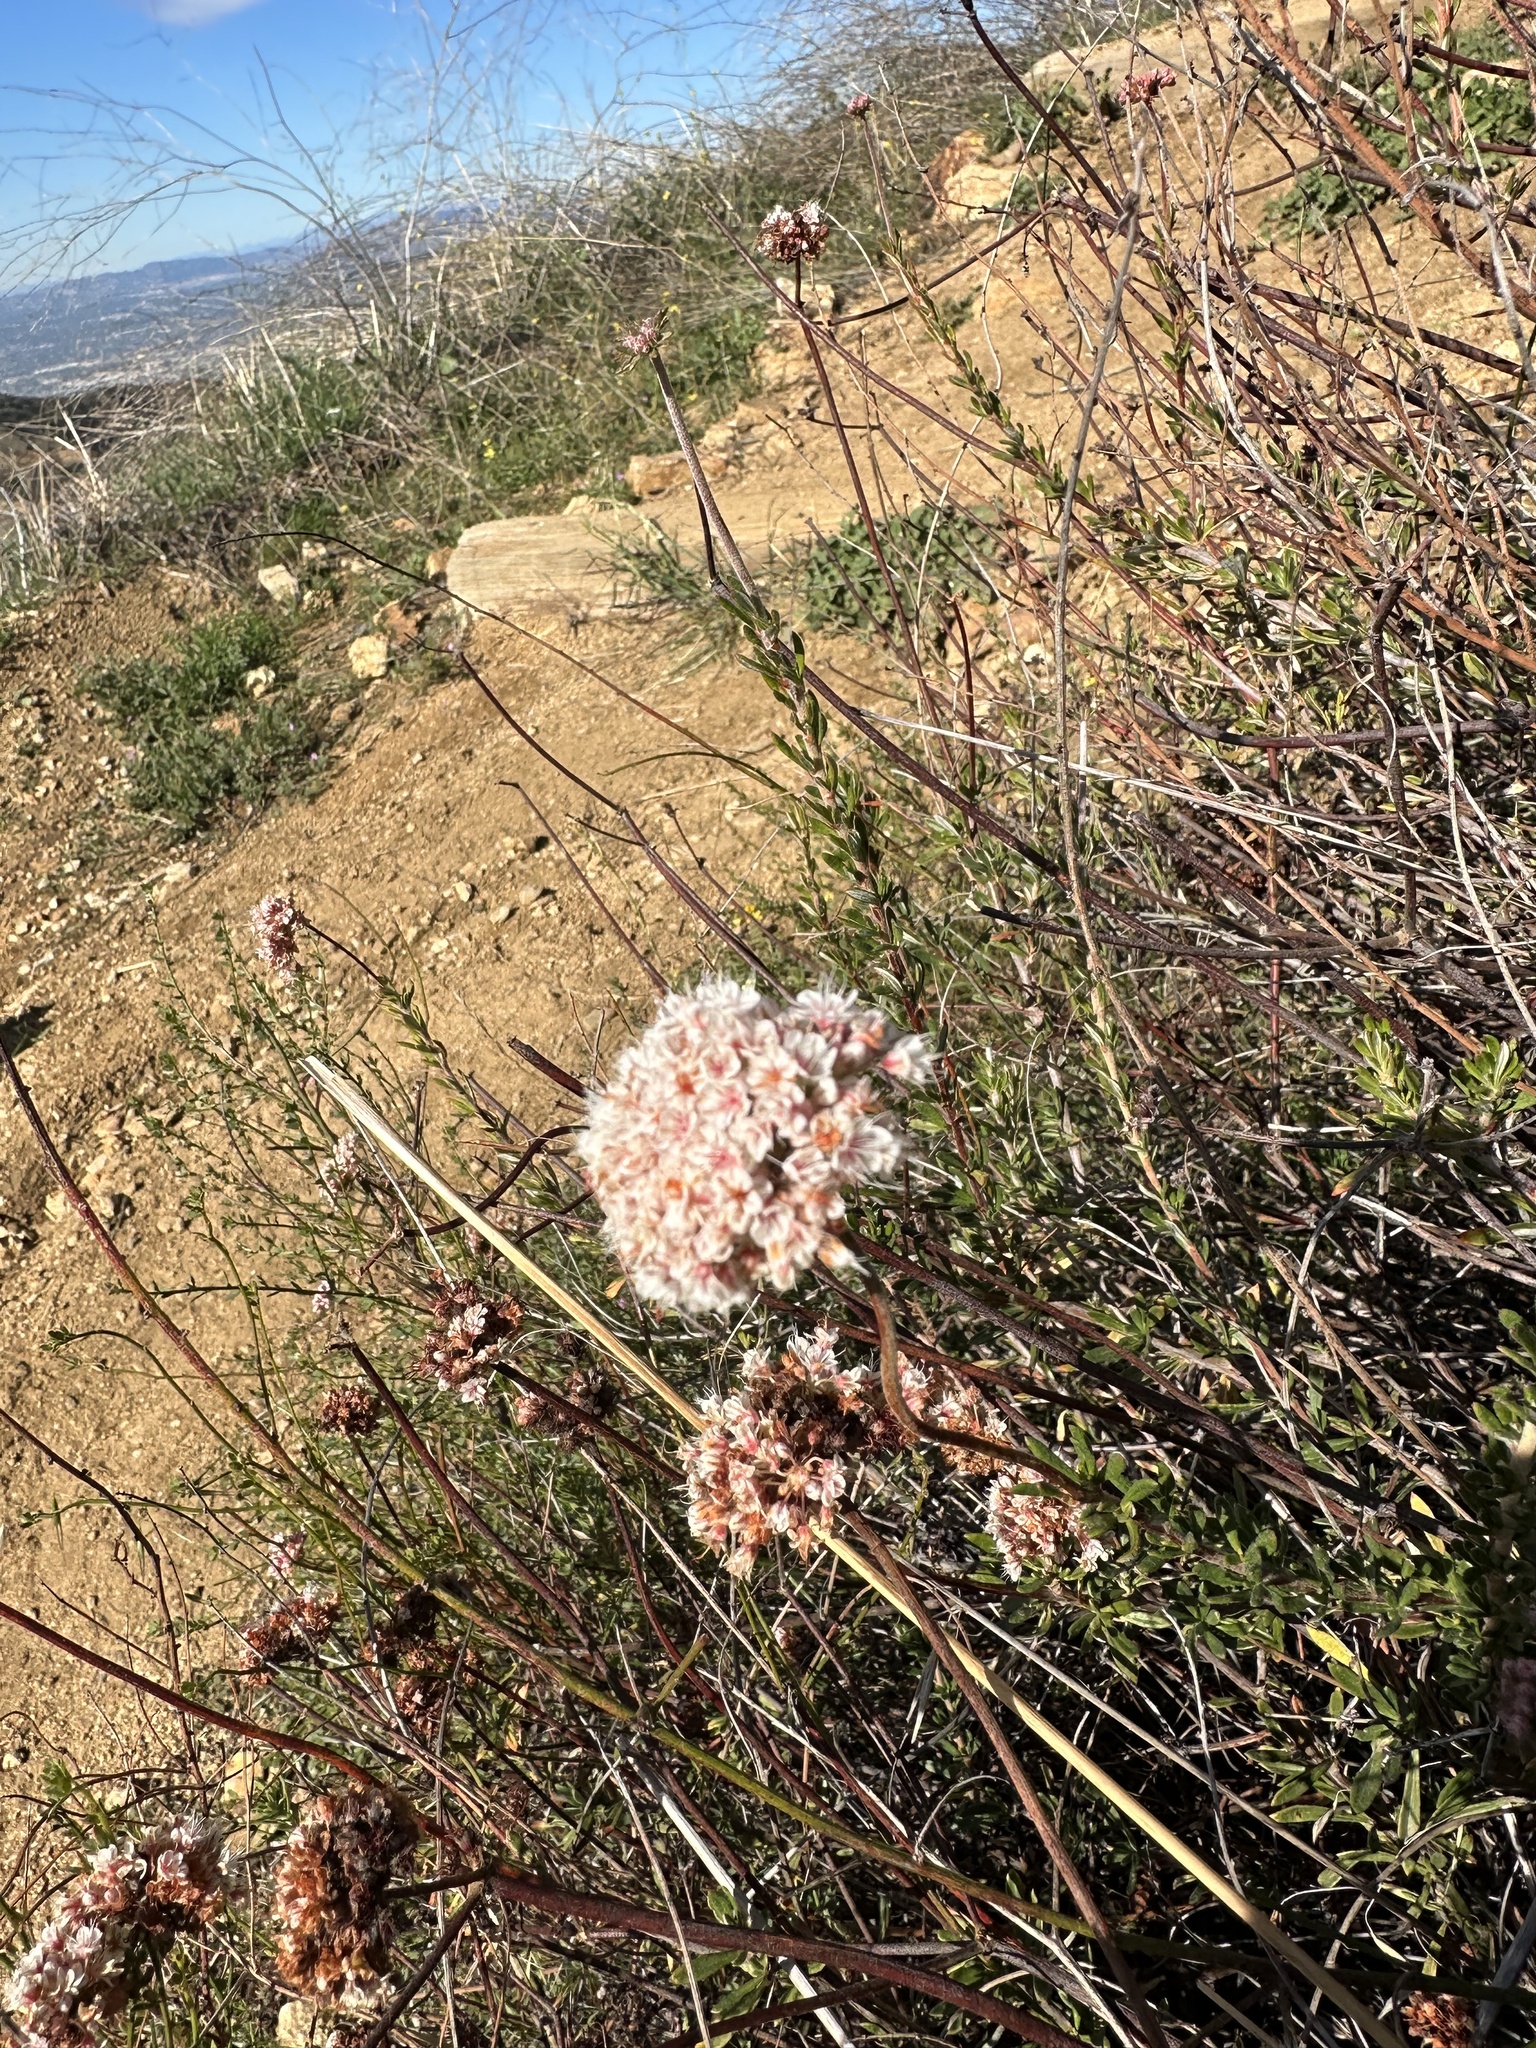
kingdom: Plantae
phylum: Tracheophyta
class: Magnoliopsida
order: Caryophyllales
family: Polygonaceae
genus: Eriogonum
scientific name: Eriogonum fasciculatum
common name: California wild buckwheat
